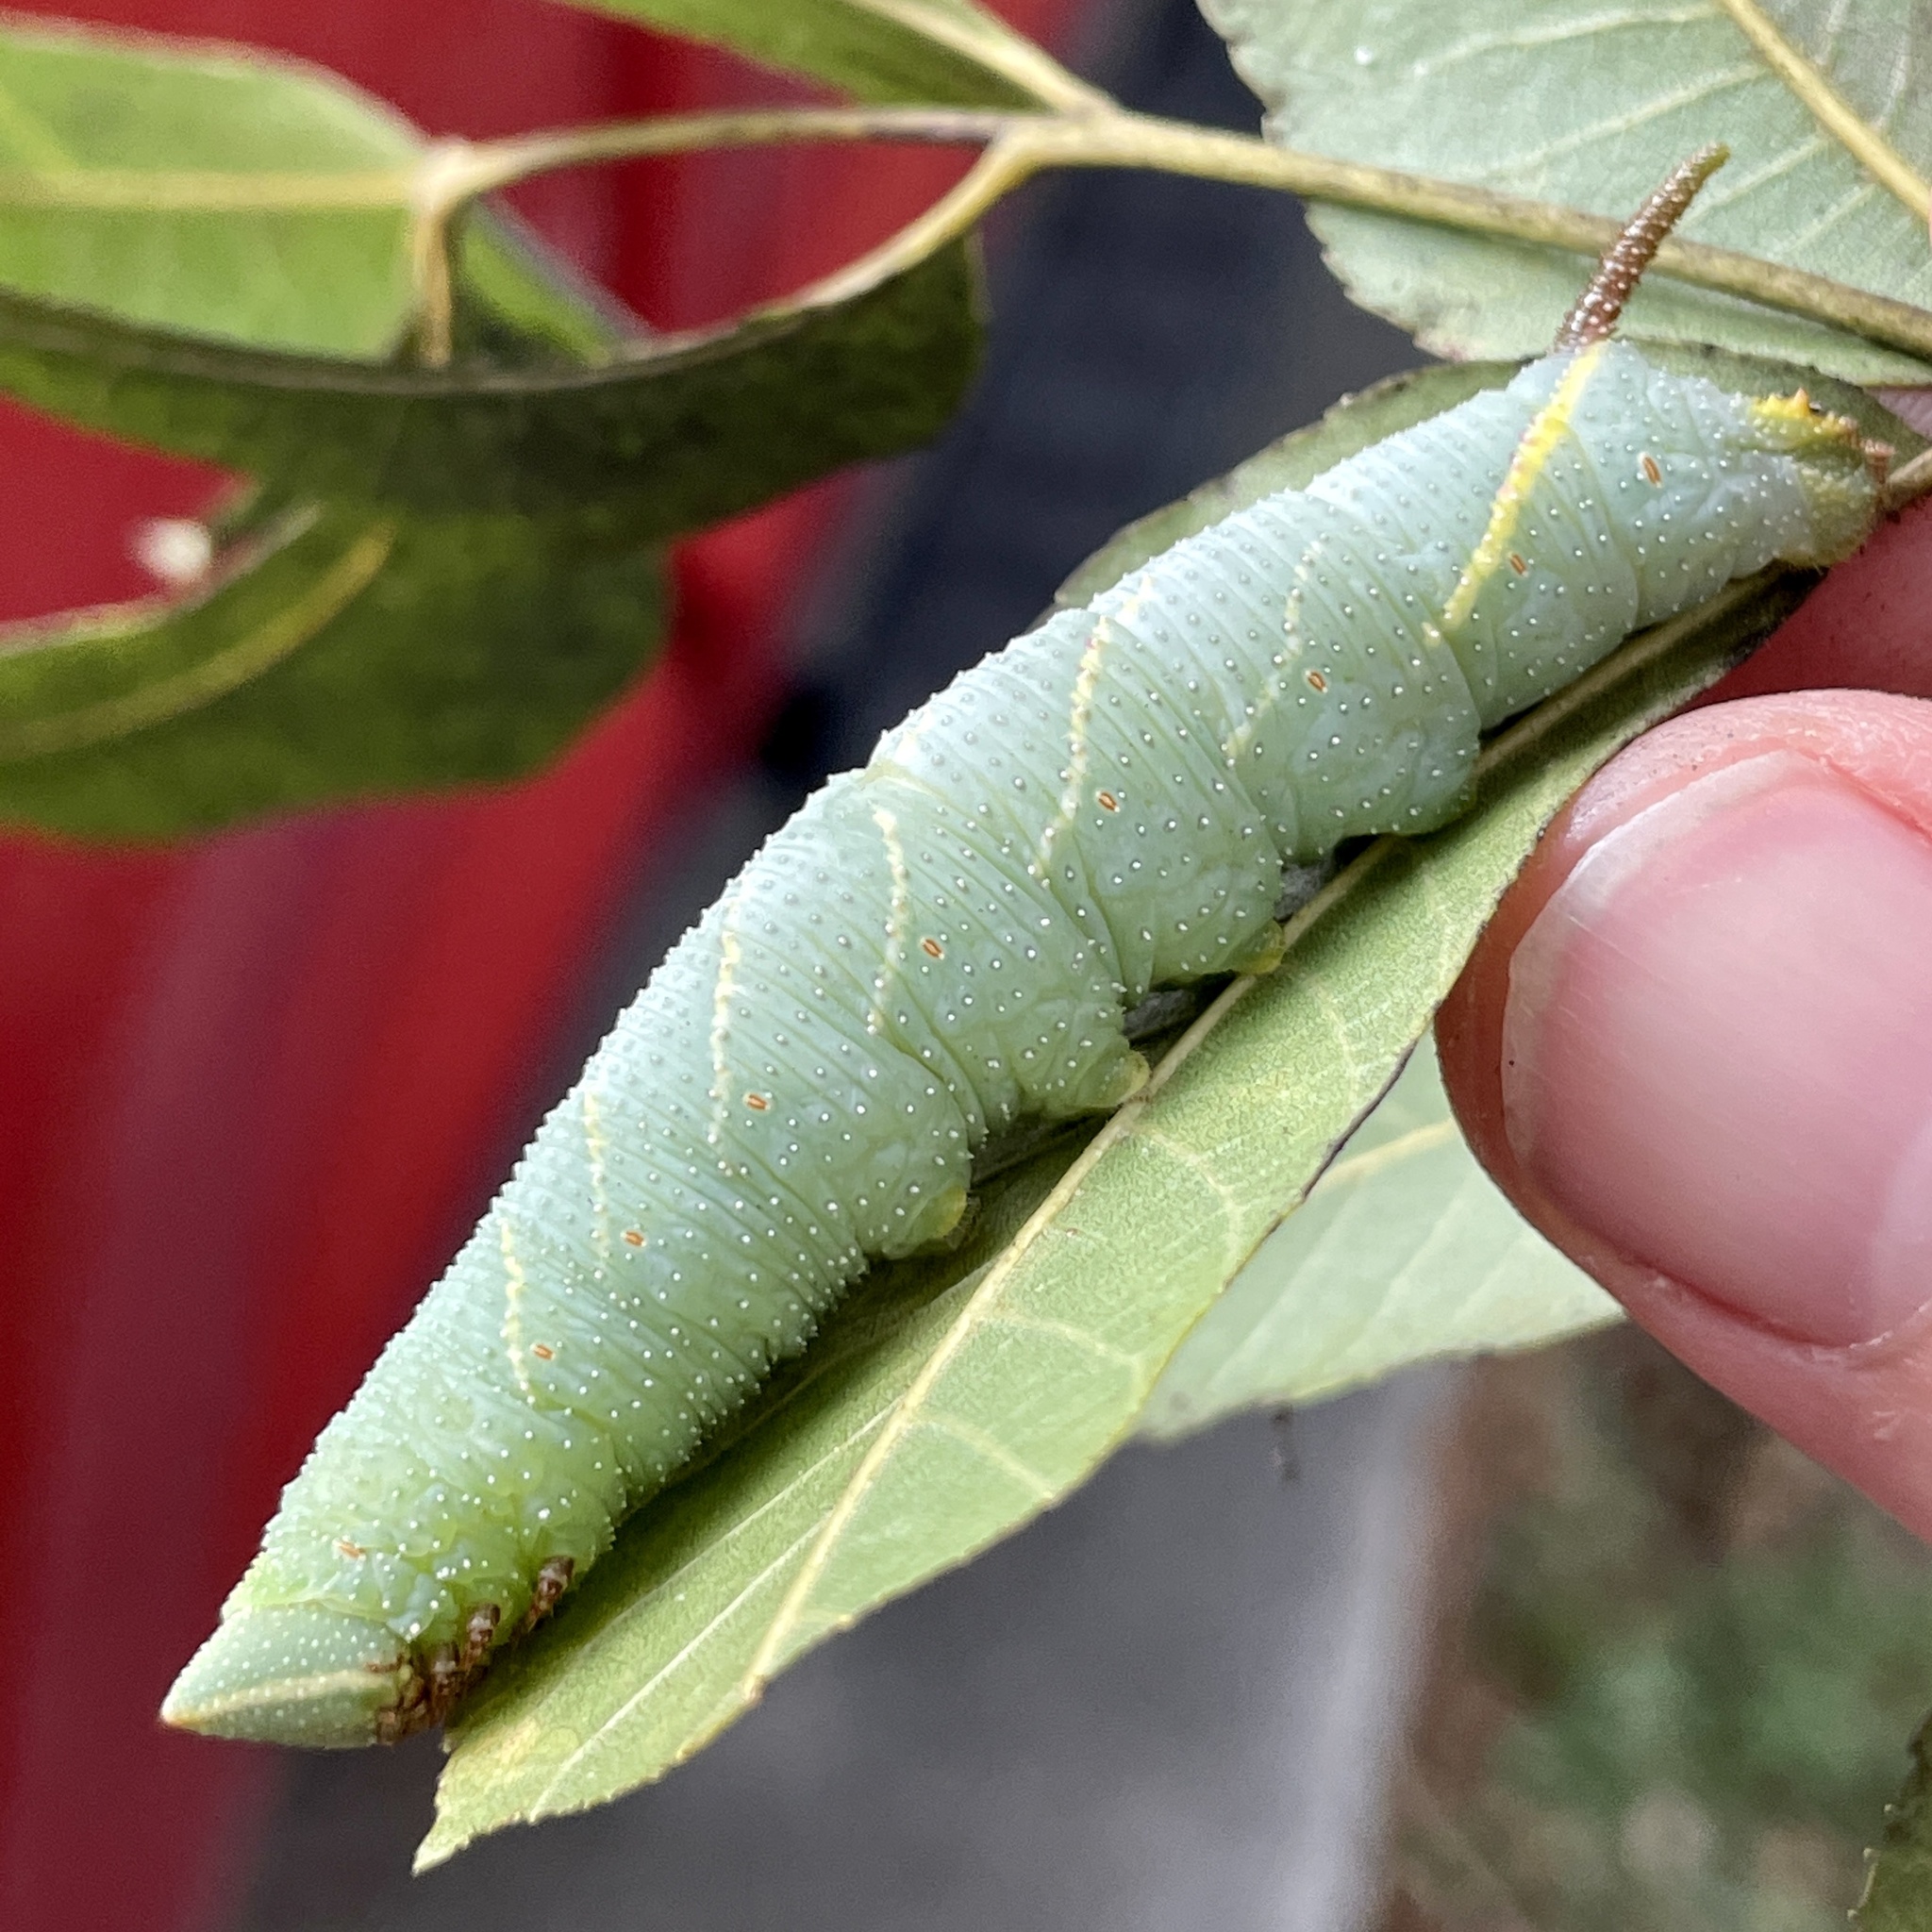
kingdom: Animalia
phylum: Arthropoda
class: Insecta
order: Lepidoptera
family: Sphingidae
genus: Amorpha
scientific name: Amorpha juglandis
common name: Walnut sphinx
